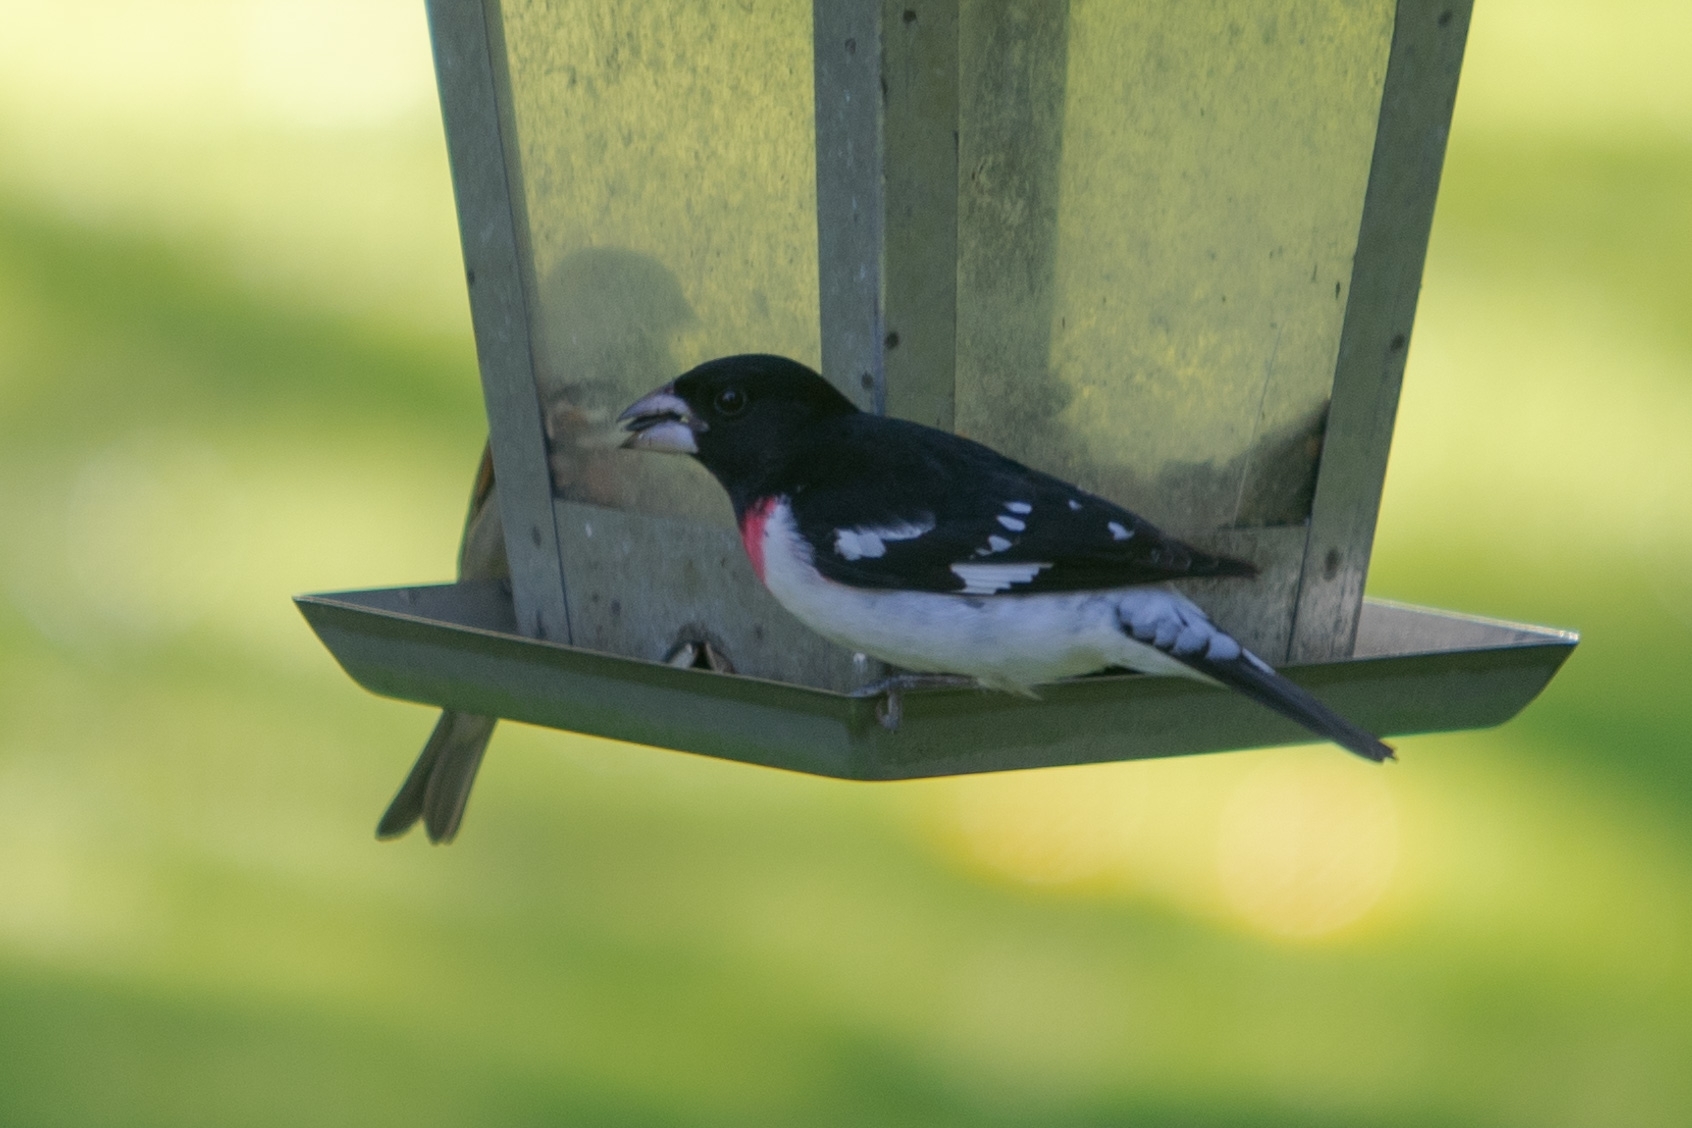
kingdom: Animalia
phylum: Chordata
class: Aves
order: Passeriformes
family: Cardinalidae
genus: Pheucticus
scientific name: Pheucticus ludovicianus
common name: Rose-breasted grosbeak
